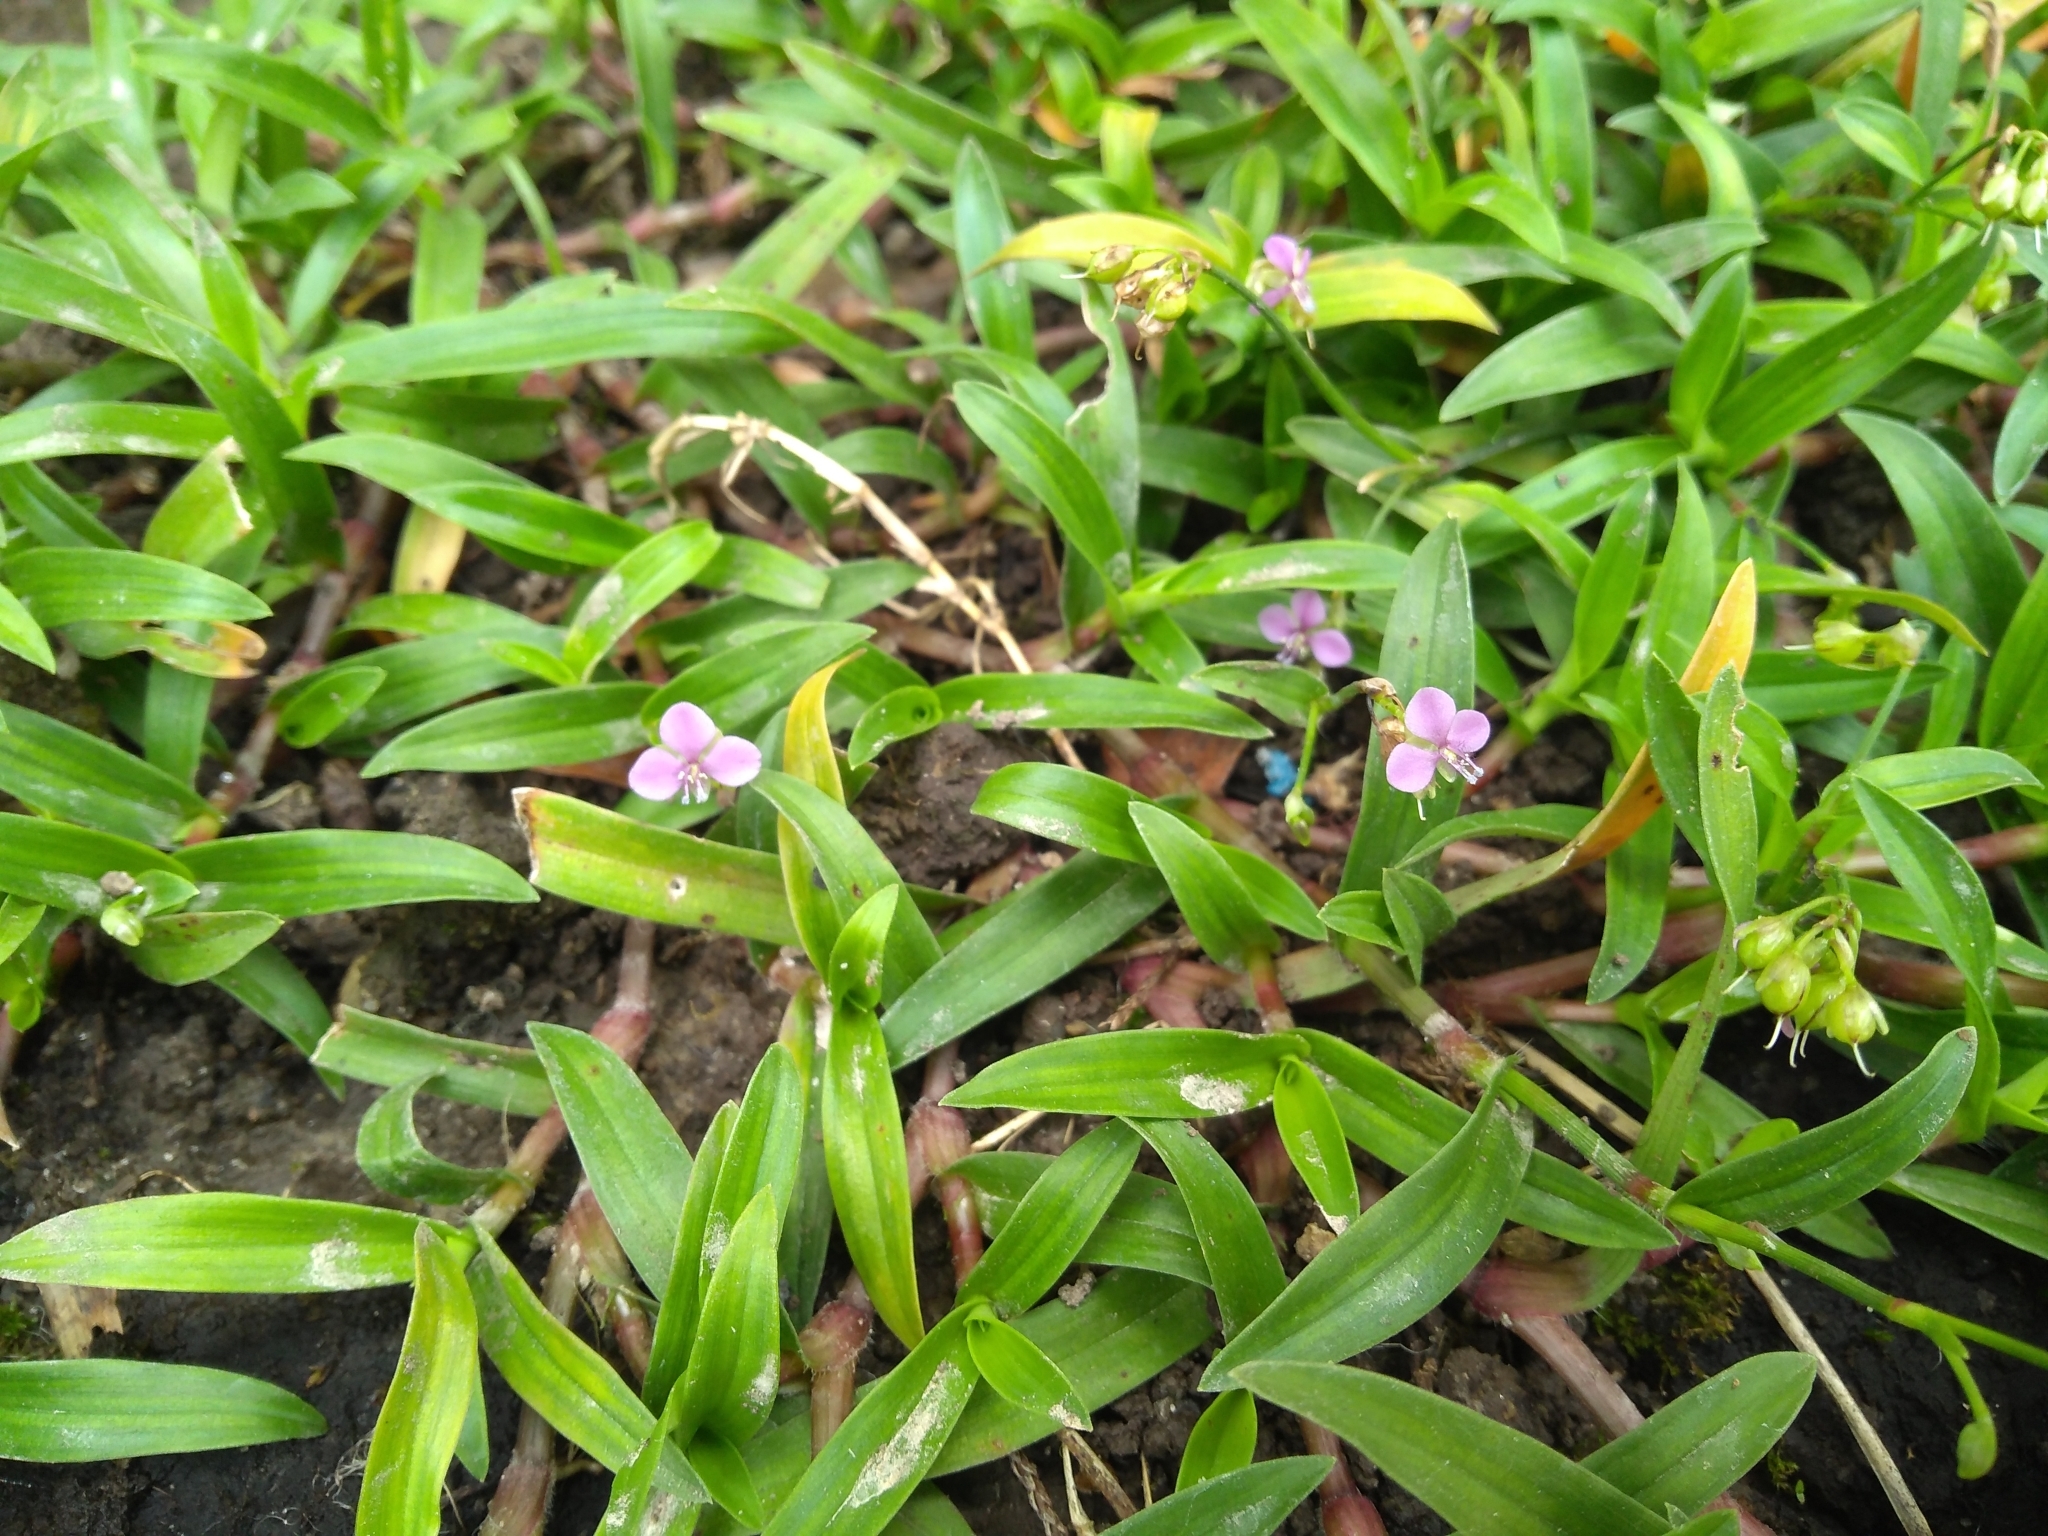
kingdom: Plantae
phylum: Tracheophyta
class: Liliopsida
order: Commelinales
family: Commelinaceae
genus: Murdannia
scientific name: Murdannia nudiflora
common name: Nakedstem dewflower
